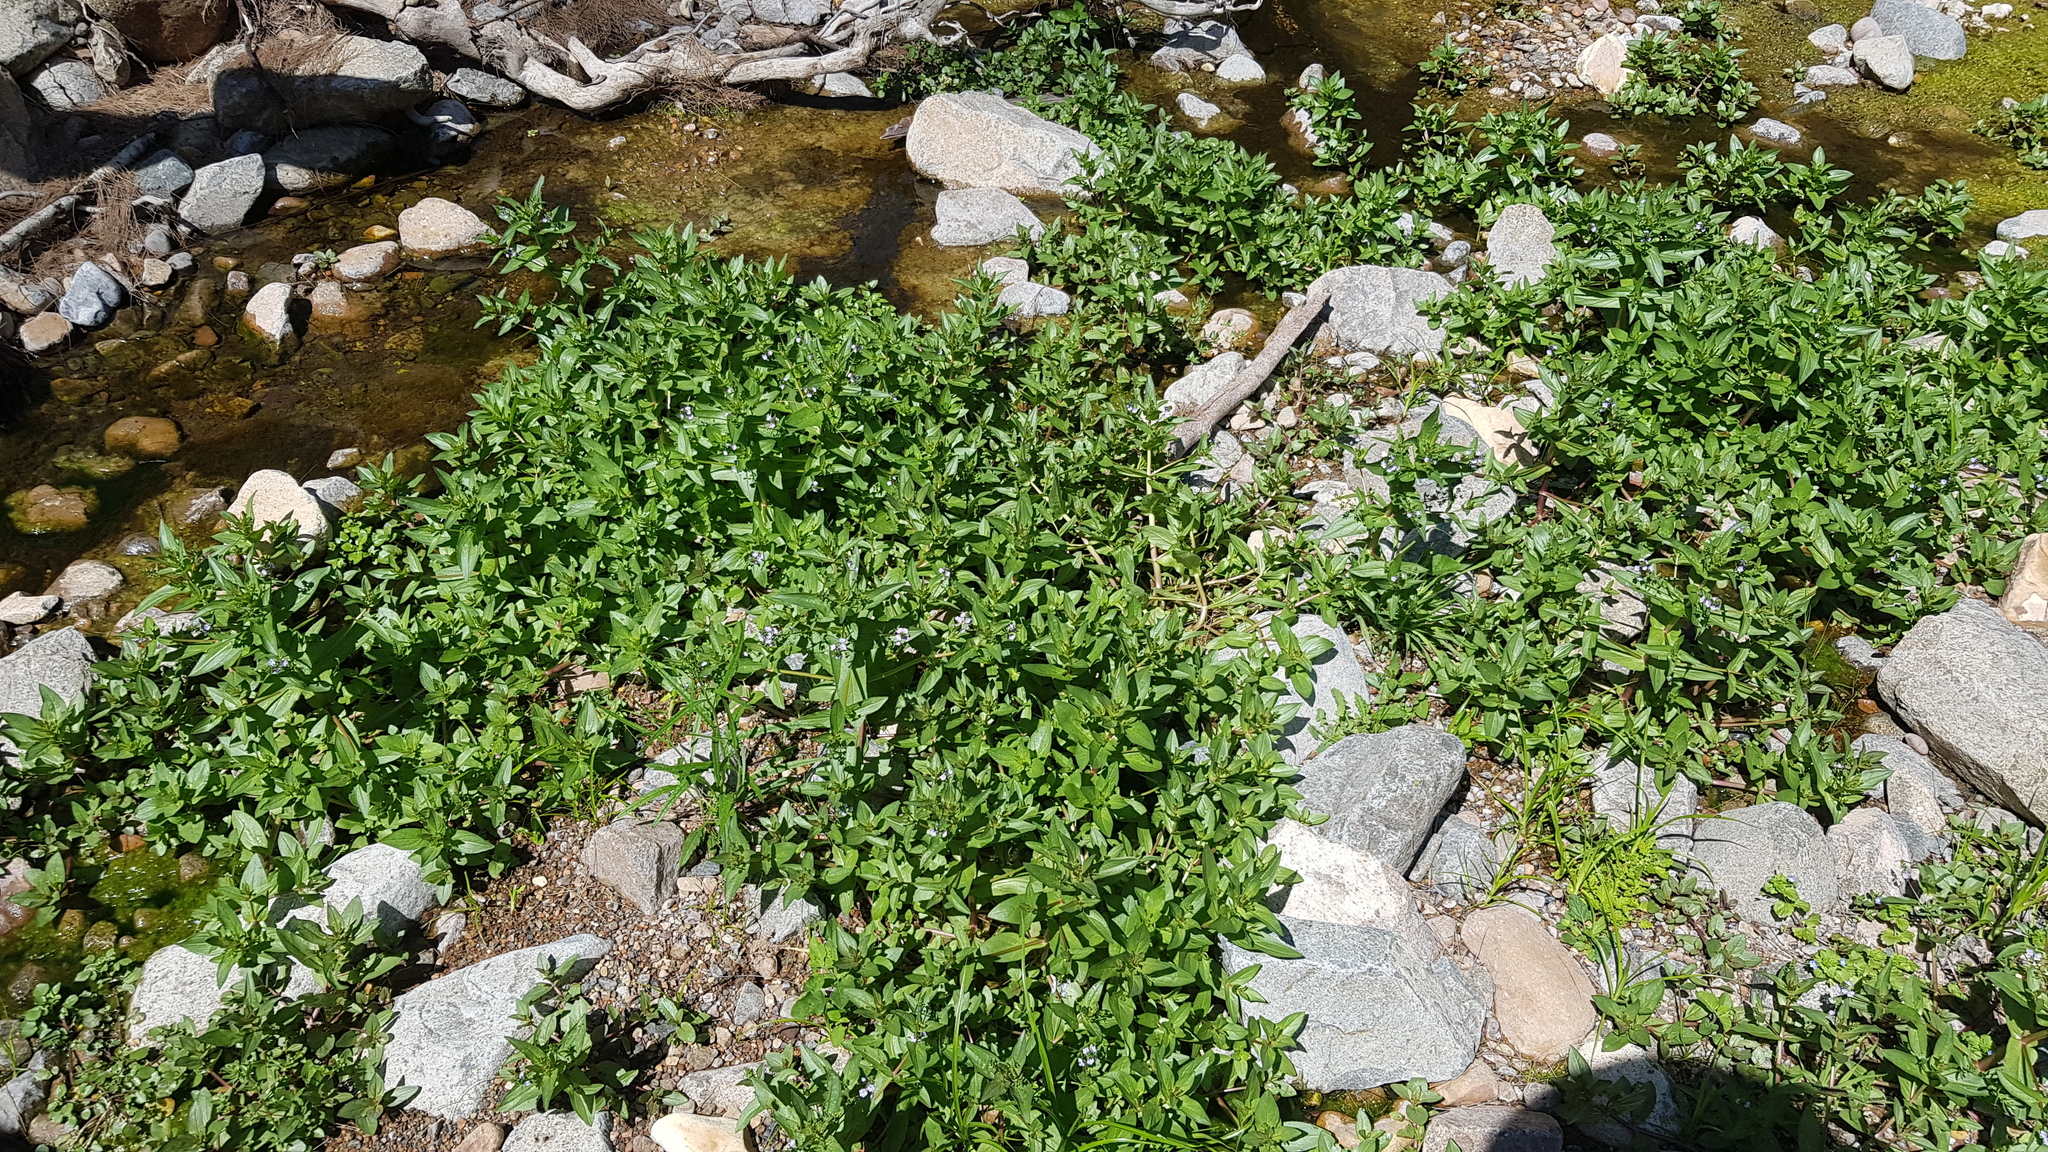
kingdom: Plantae
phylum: Tracheophyta
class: Magnoliopsida
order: Lamiales
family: Plantaginaceae
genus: Veronica
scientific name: Veronica anagallis-aquatica
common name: Water speedwell
